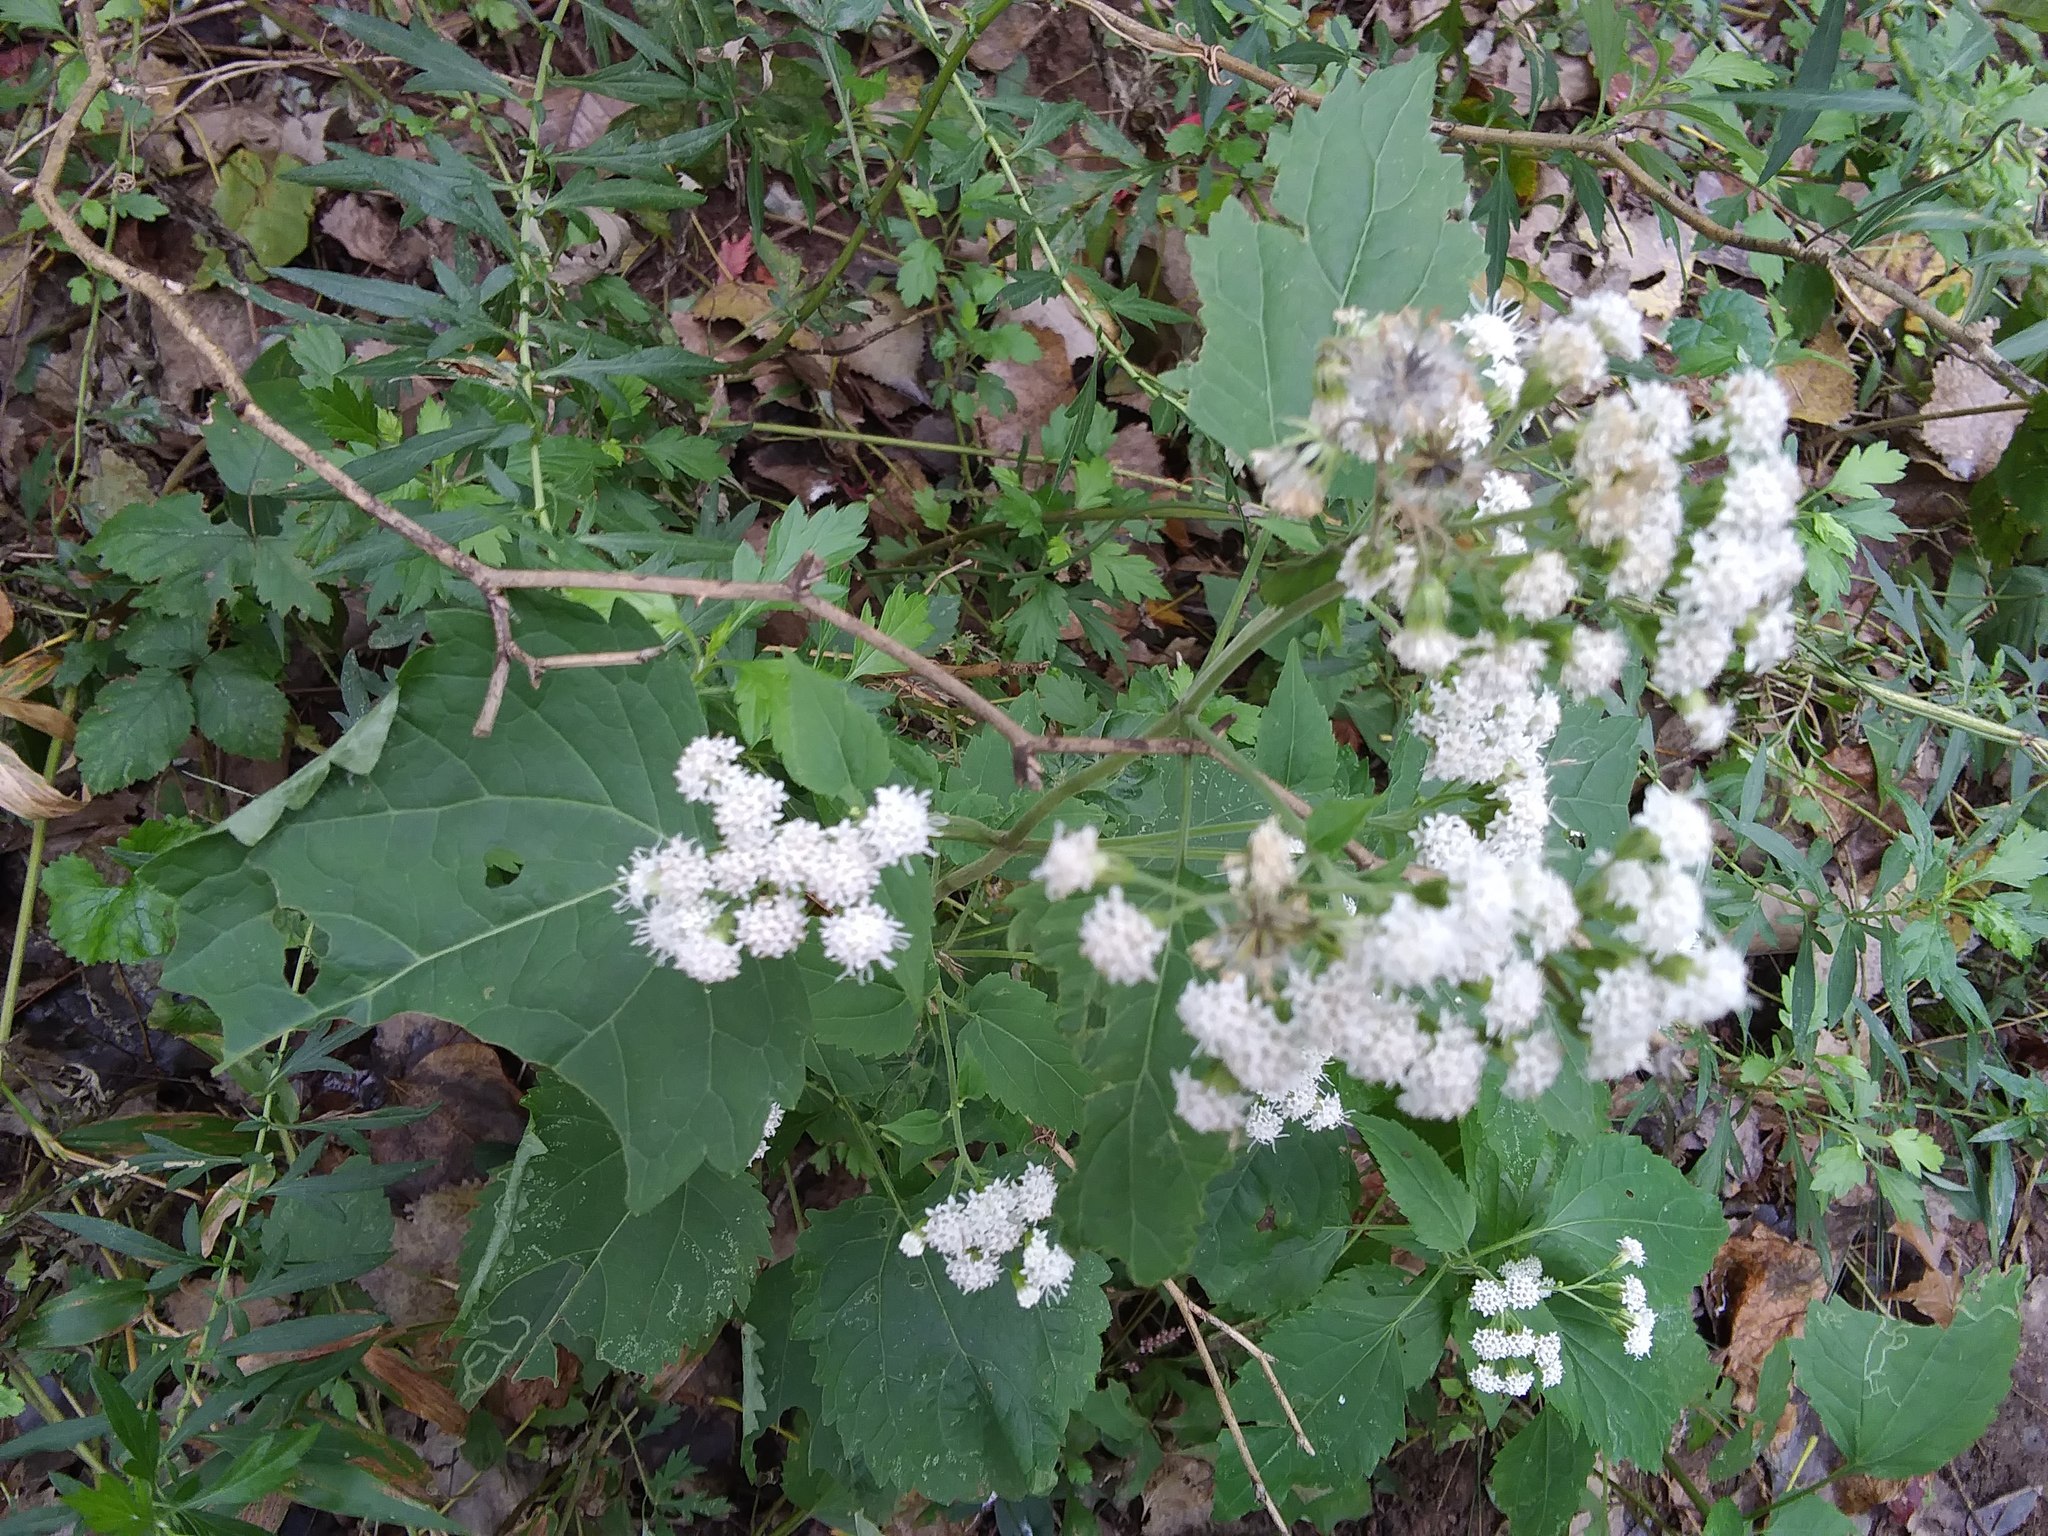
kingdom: Plantae
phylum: Tracheophyta
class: Magnoliopsida
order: Asterales
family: Asteraceae
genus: Ageratina
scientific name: Ageratina altissima
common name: White snakeroot
